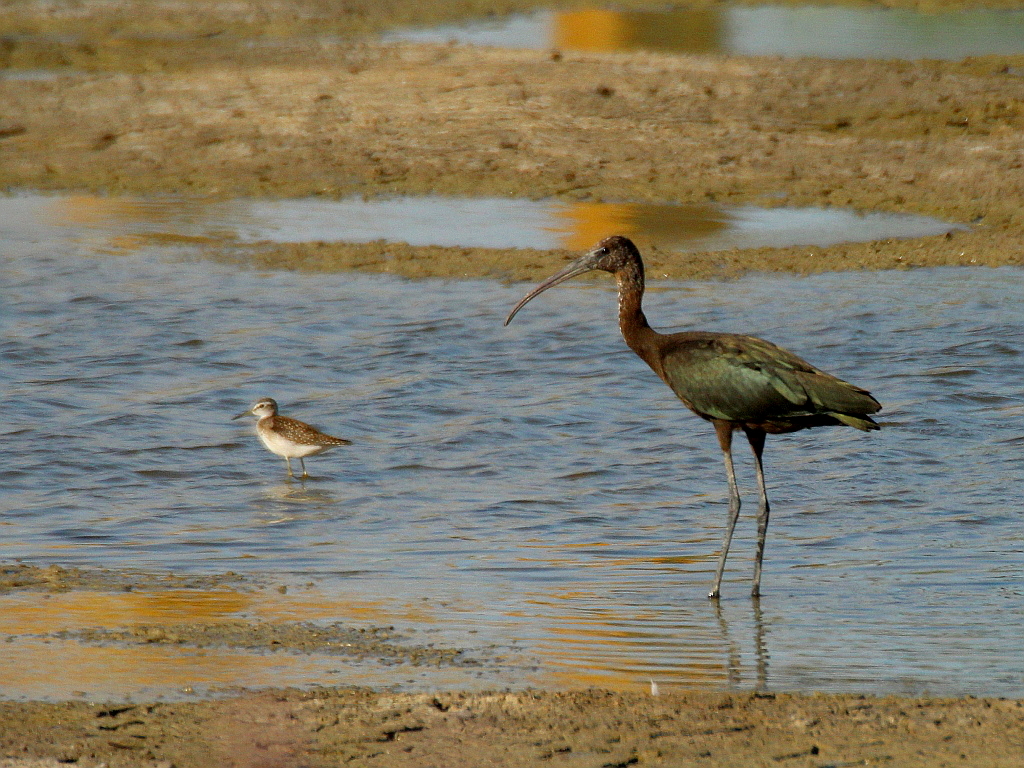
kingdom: Animalia
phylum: Chordata
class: Aves
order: Pelecaniformes
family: Threskiornithidae
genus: Plegadis
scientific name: Plegadis falcinellus
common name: Glossy ibis
